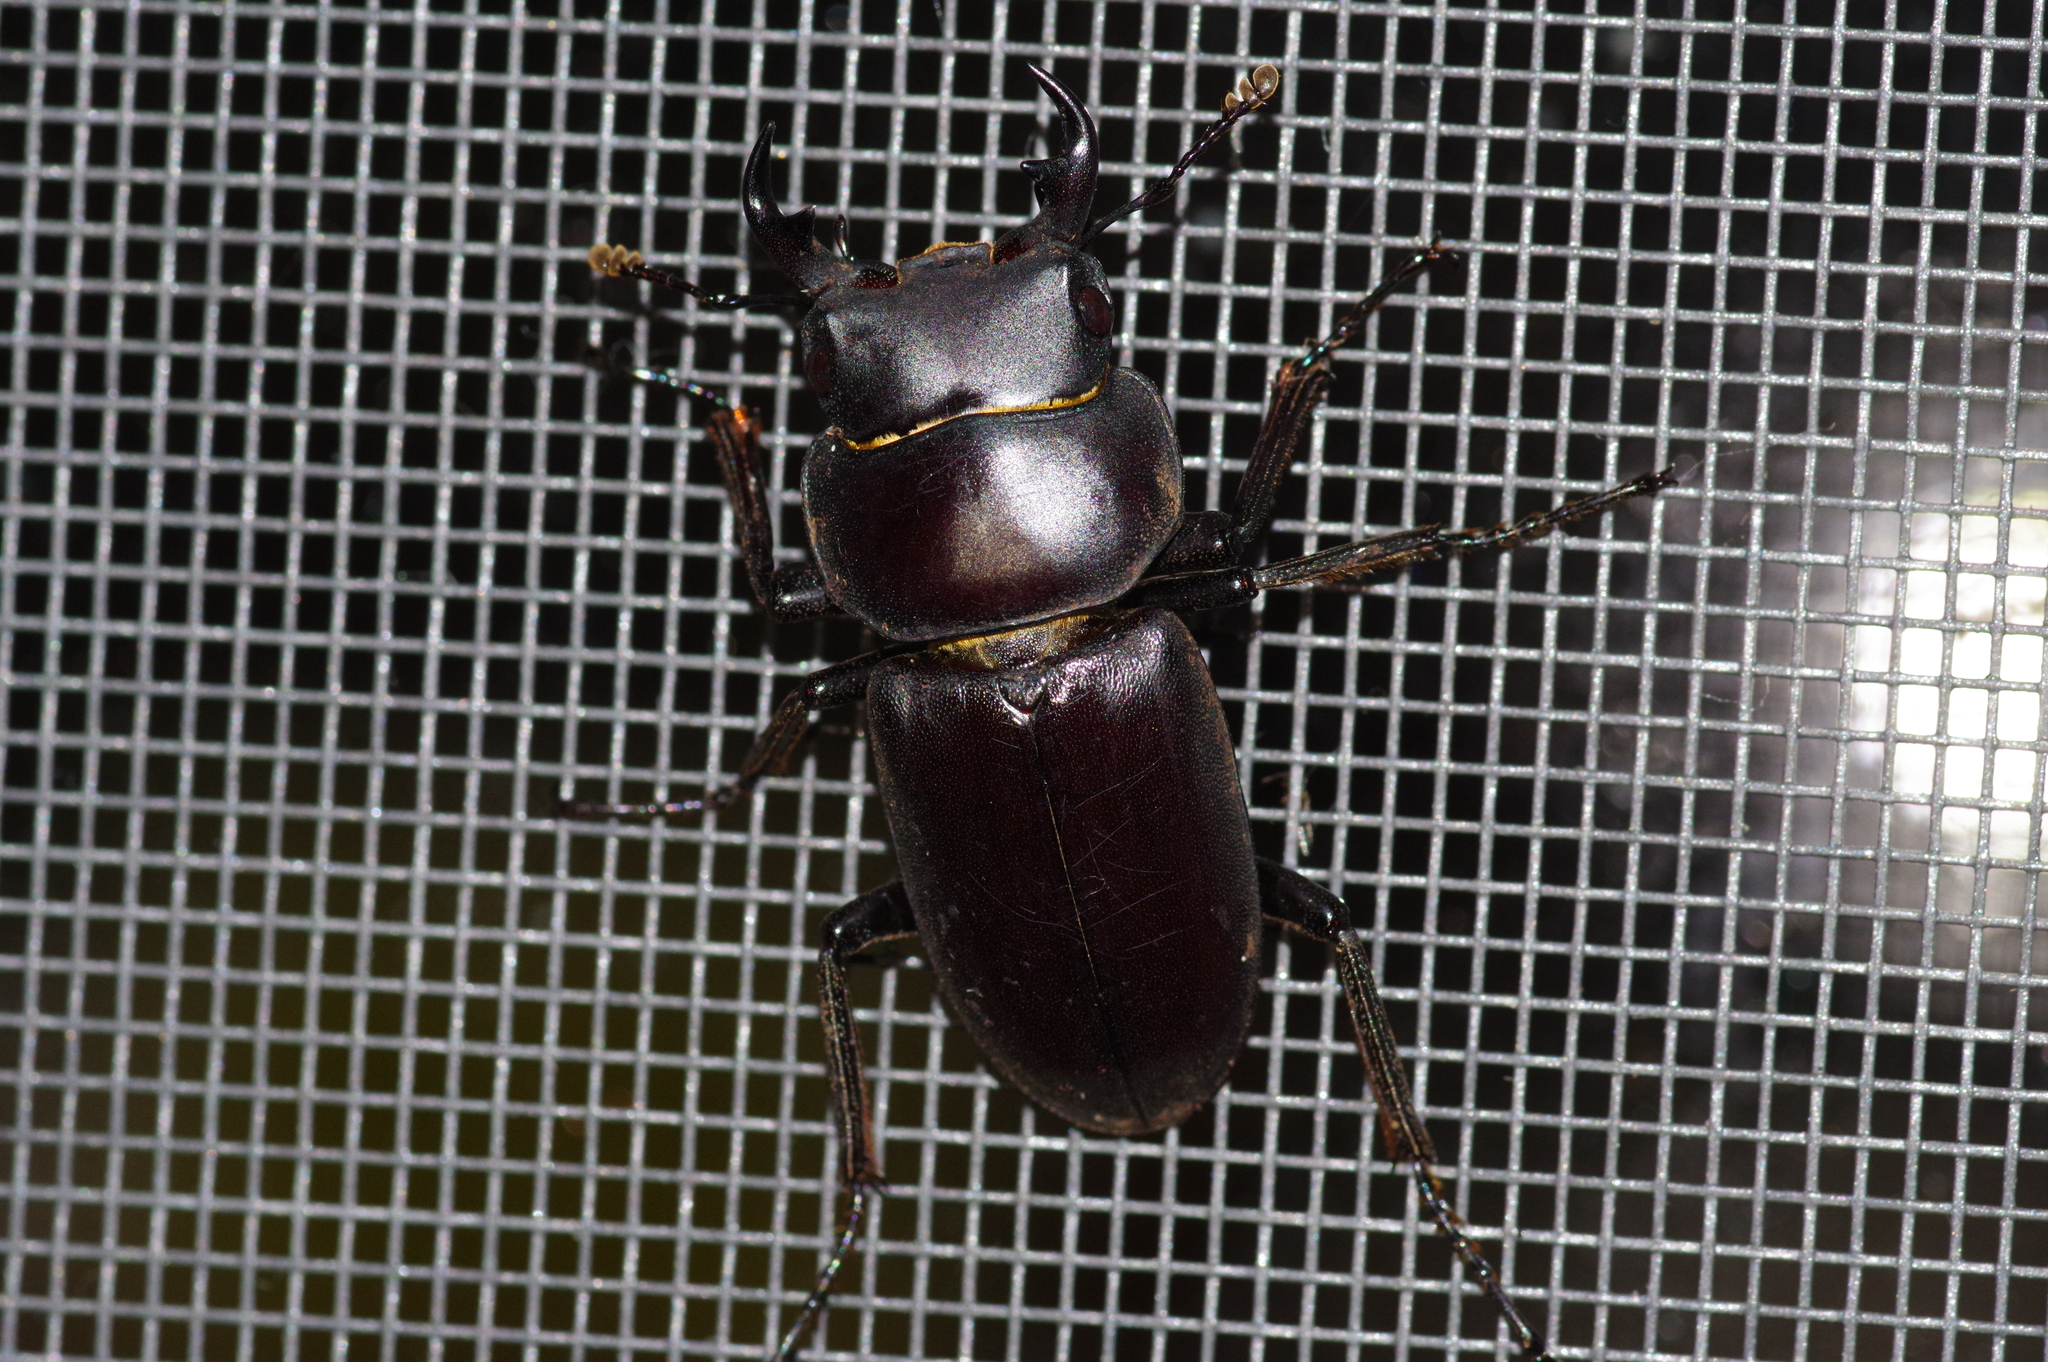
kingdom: Animalia
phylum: Arthropoda
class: Insecta
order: Coleoptera
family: Lucanidae
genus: Dorcus
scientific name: Dorcus amamianus
